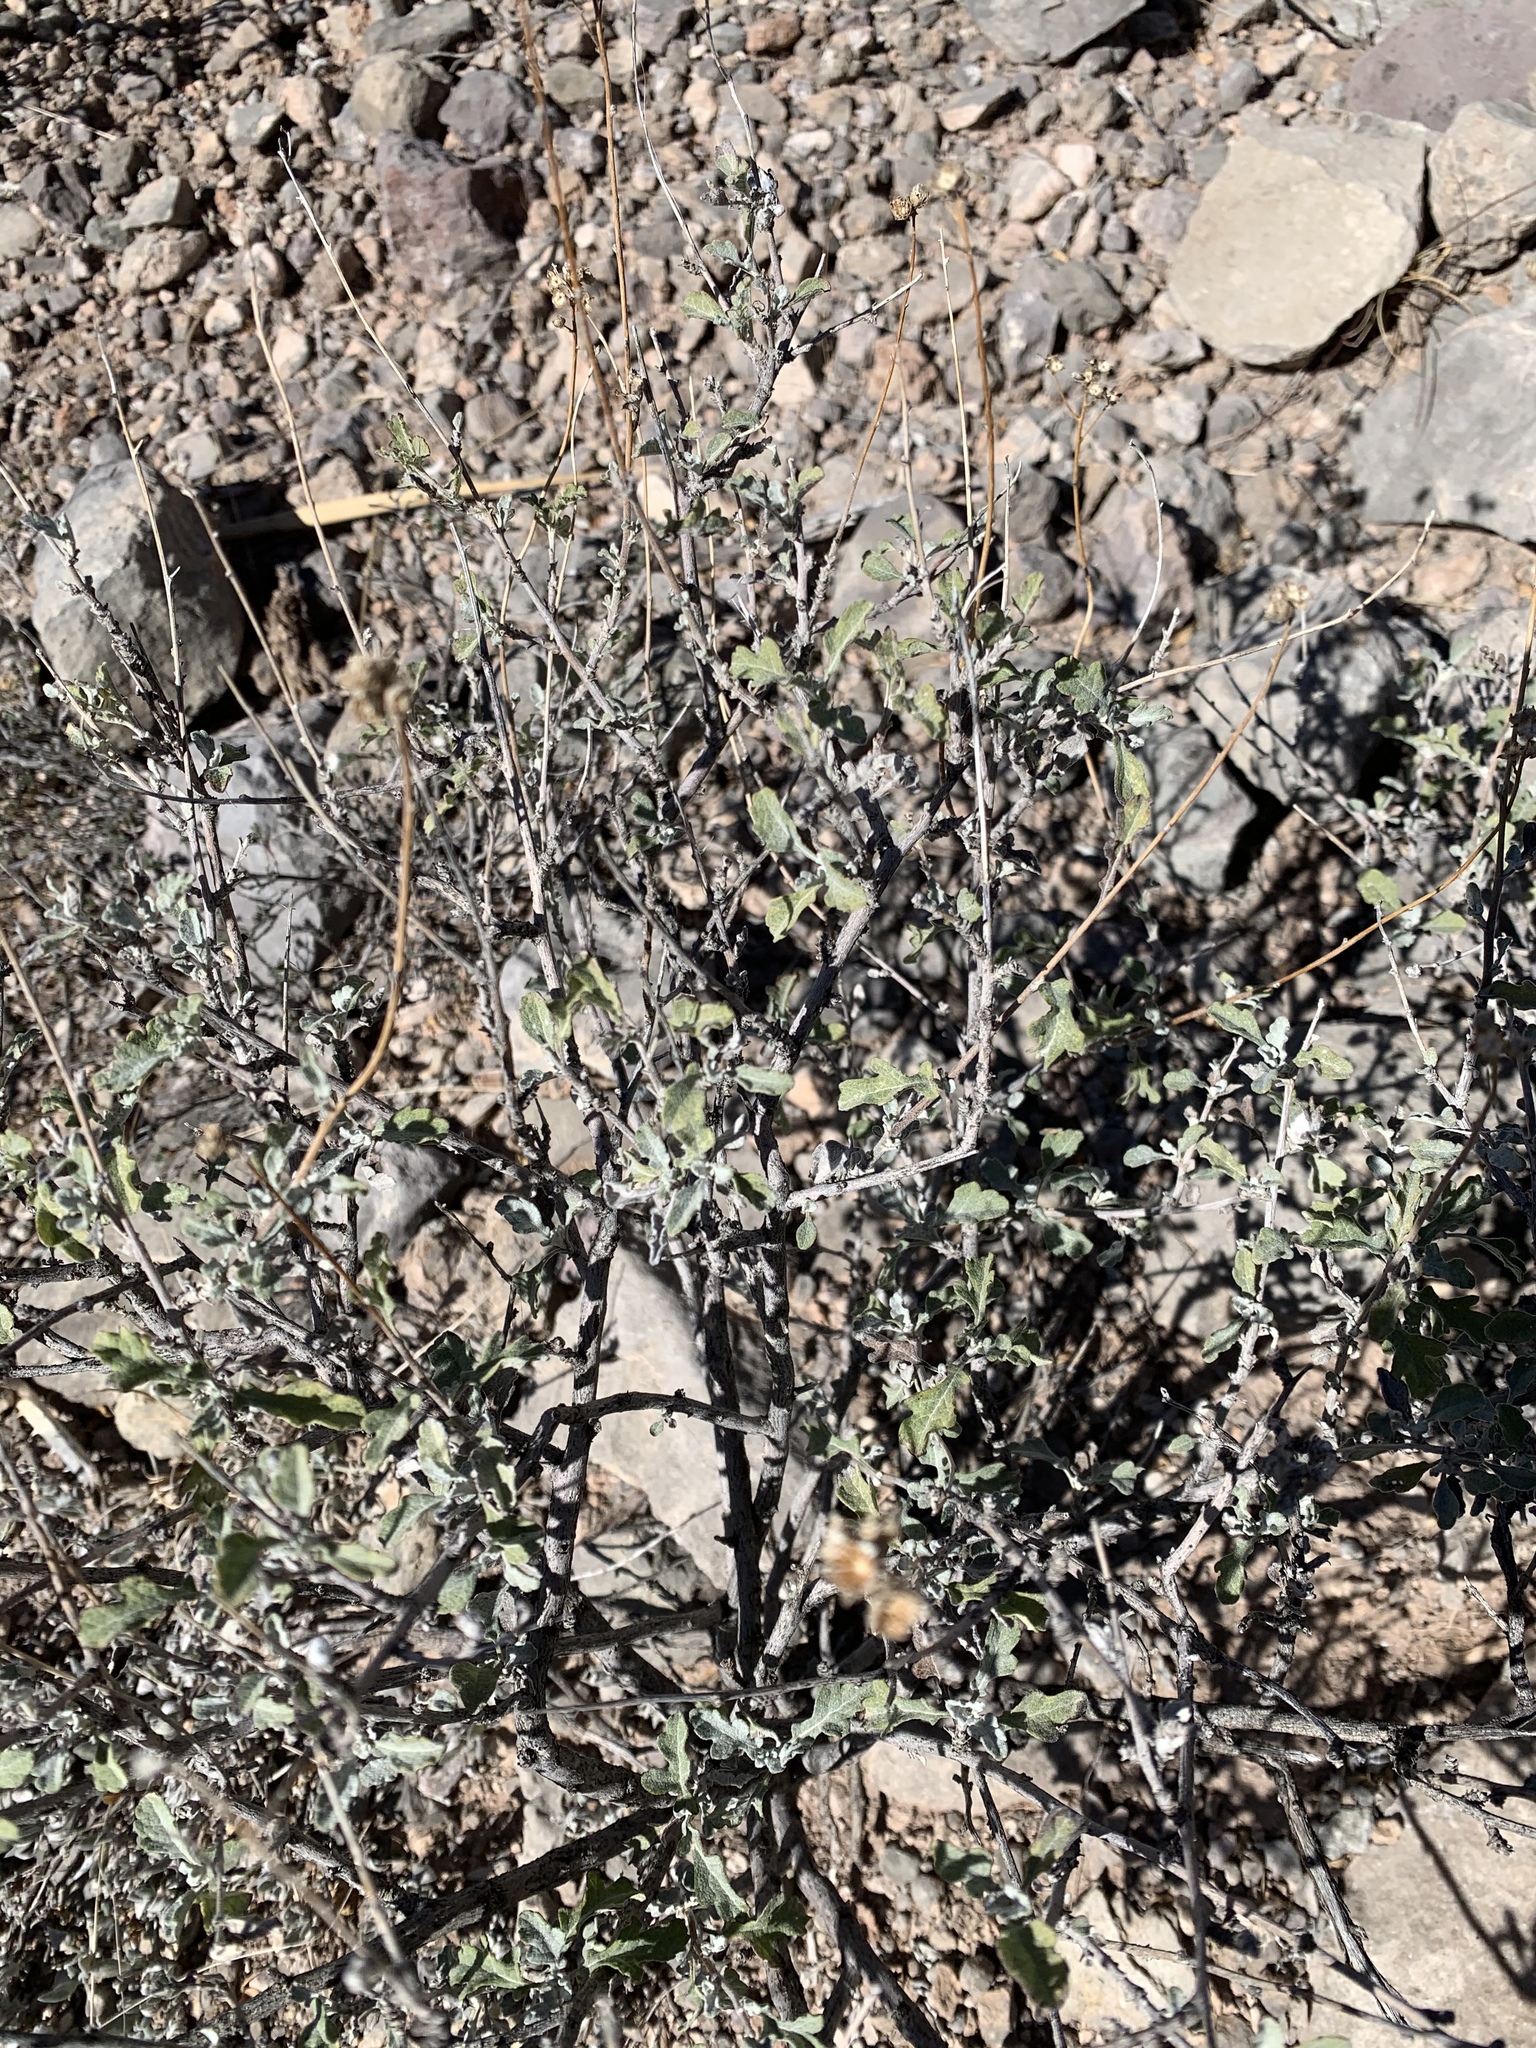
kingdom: Plantae
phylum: Tracheophyta
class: Magnoliopsida
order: Asterales
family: Asteraceae
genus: Parthenium
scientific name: Parthenium incanum
